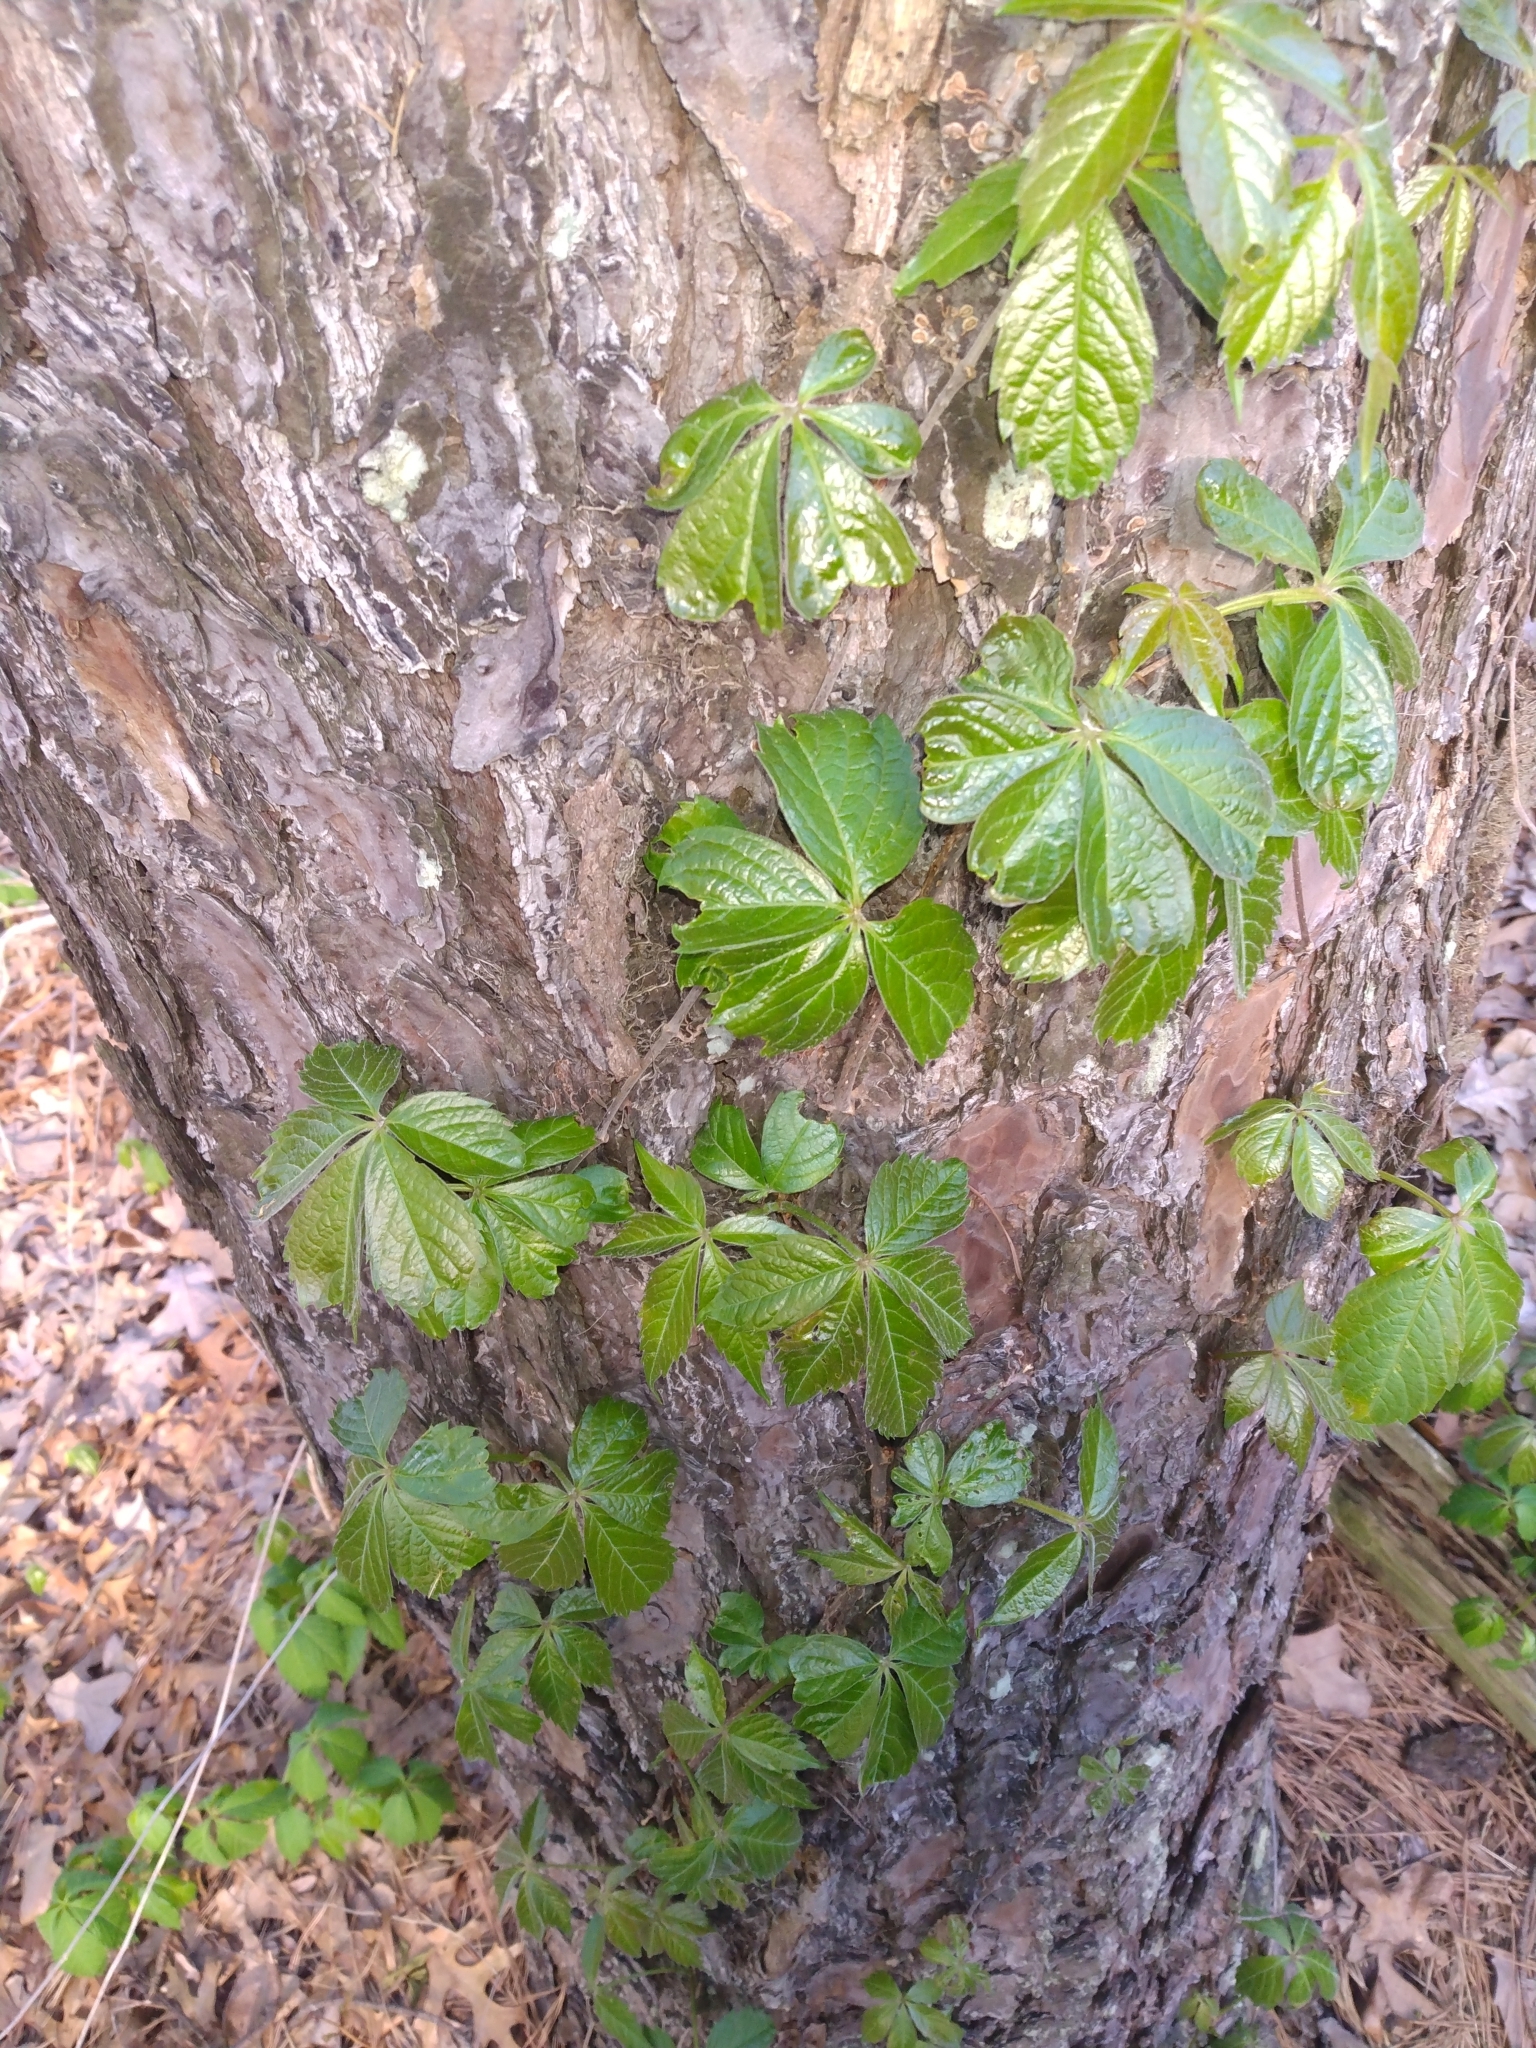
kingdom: Plantae
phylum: Tracheophyta
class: Magnoliopsida
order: Vitales
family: Vitaceae
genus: Parthenocissus
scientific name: Parthenocissus quinquefolia
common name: Virginia-creeper
